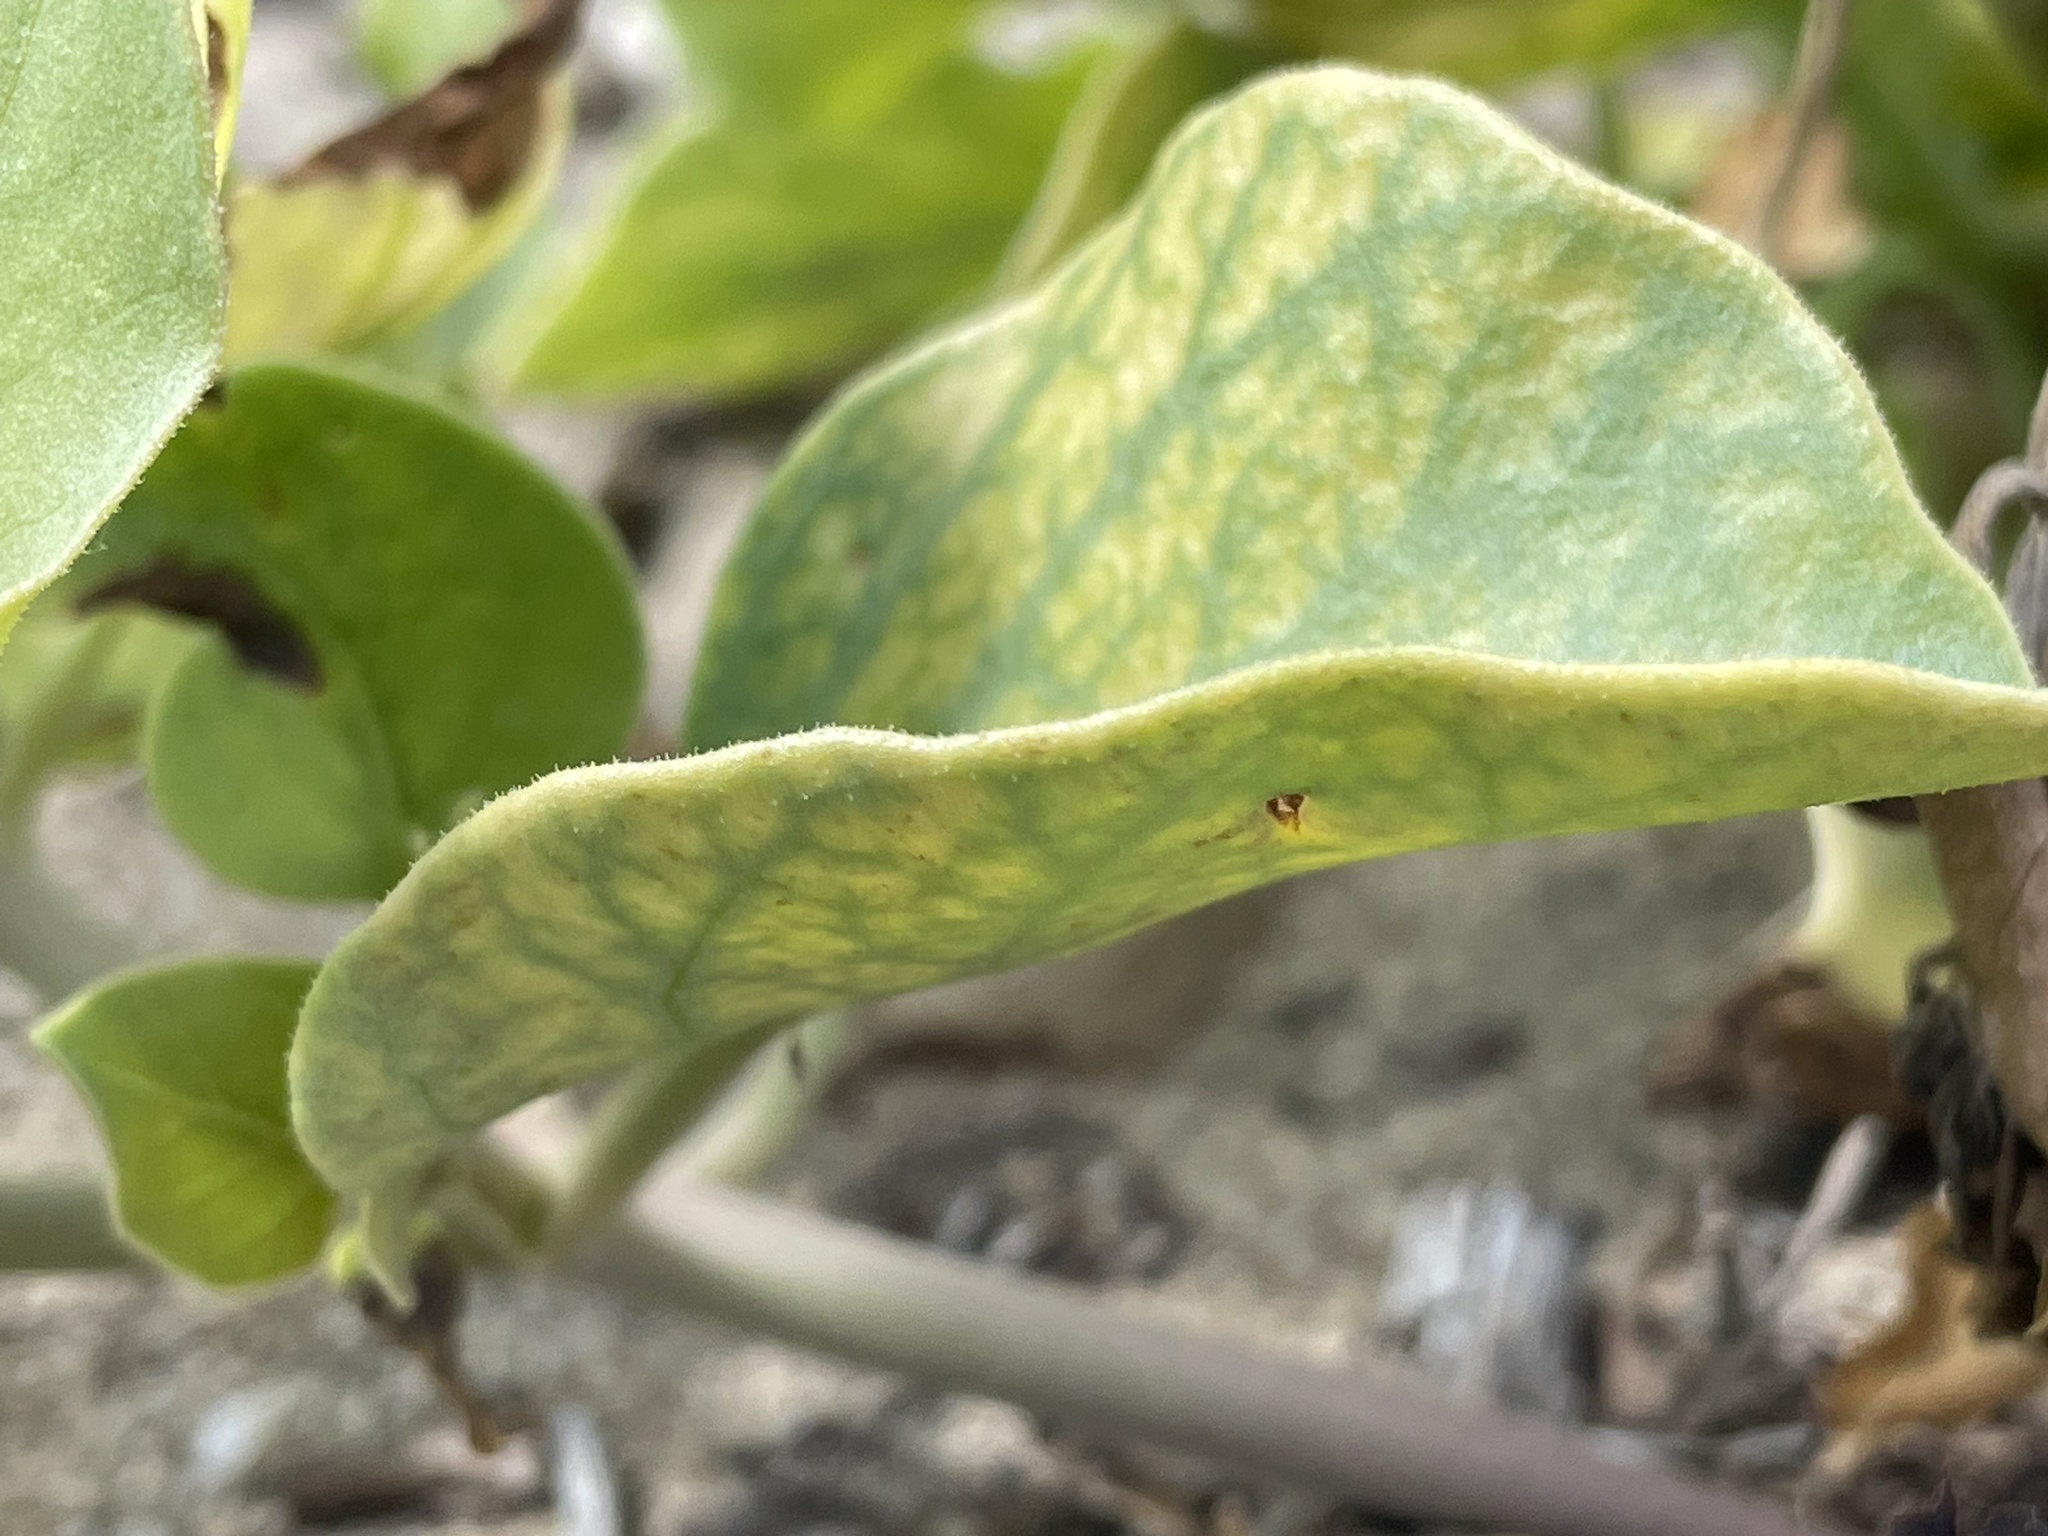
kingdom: Plantae
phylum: Tracheophyta
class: Magnoliopsida
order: Caryophyllales
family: Nyctaginaceae
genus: Mirabilis
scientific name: Mirabilis multiflora
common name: Froebel's four-o'clock
